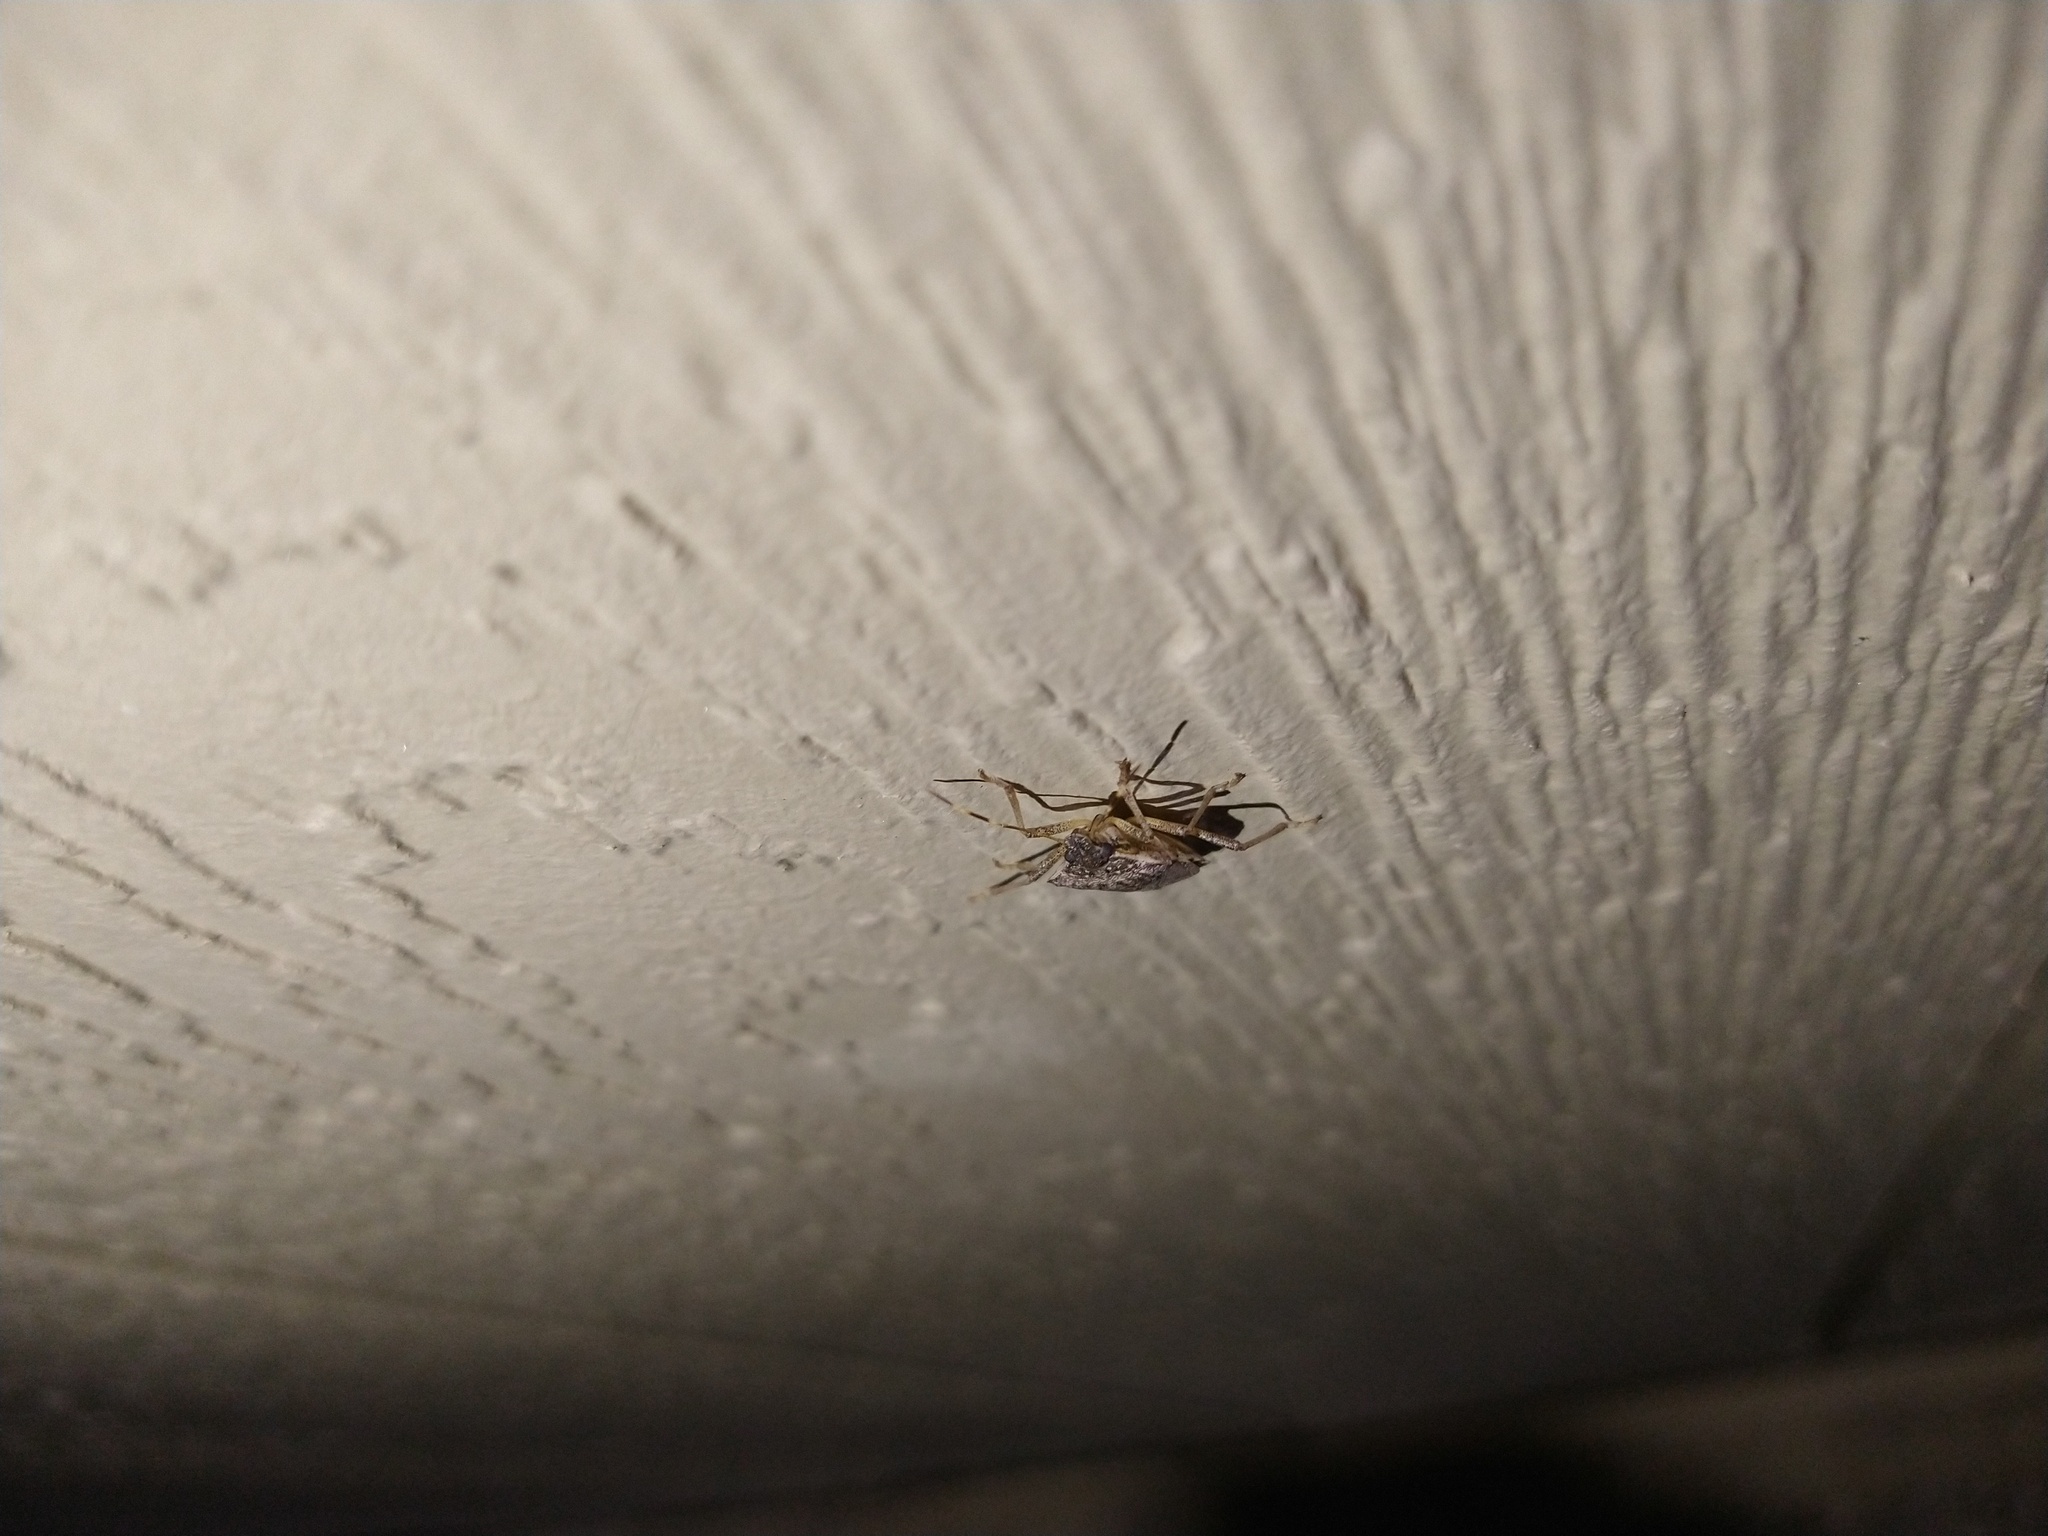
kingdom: Animalia
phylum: Arthropoda
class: Insecta
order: Hemiptera
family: Pentatomidae
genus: Halyomorpha
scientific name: Halyomorpha halys
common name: Brown marmorated stink bug
